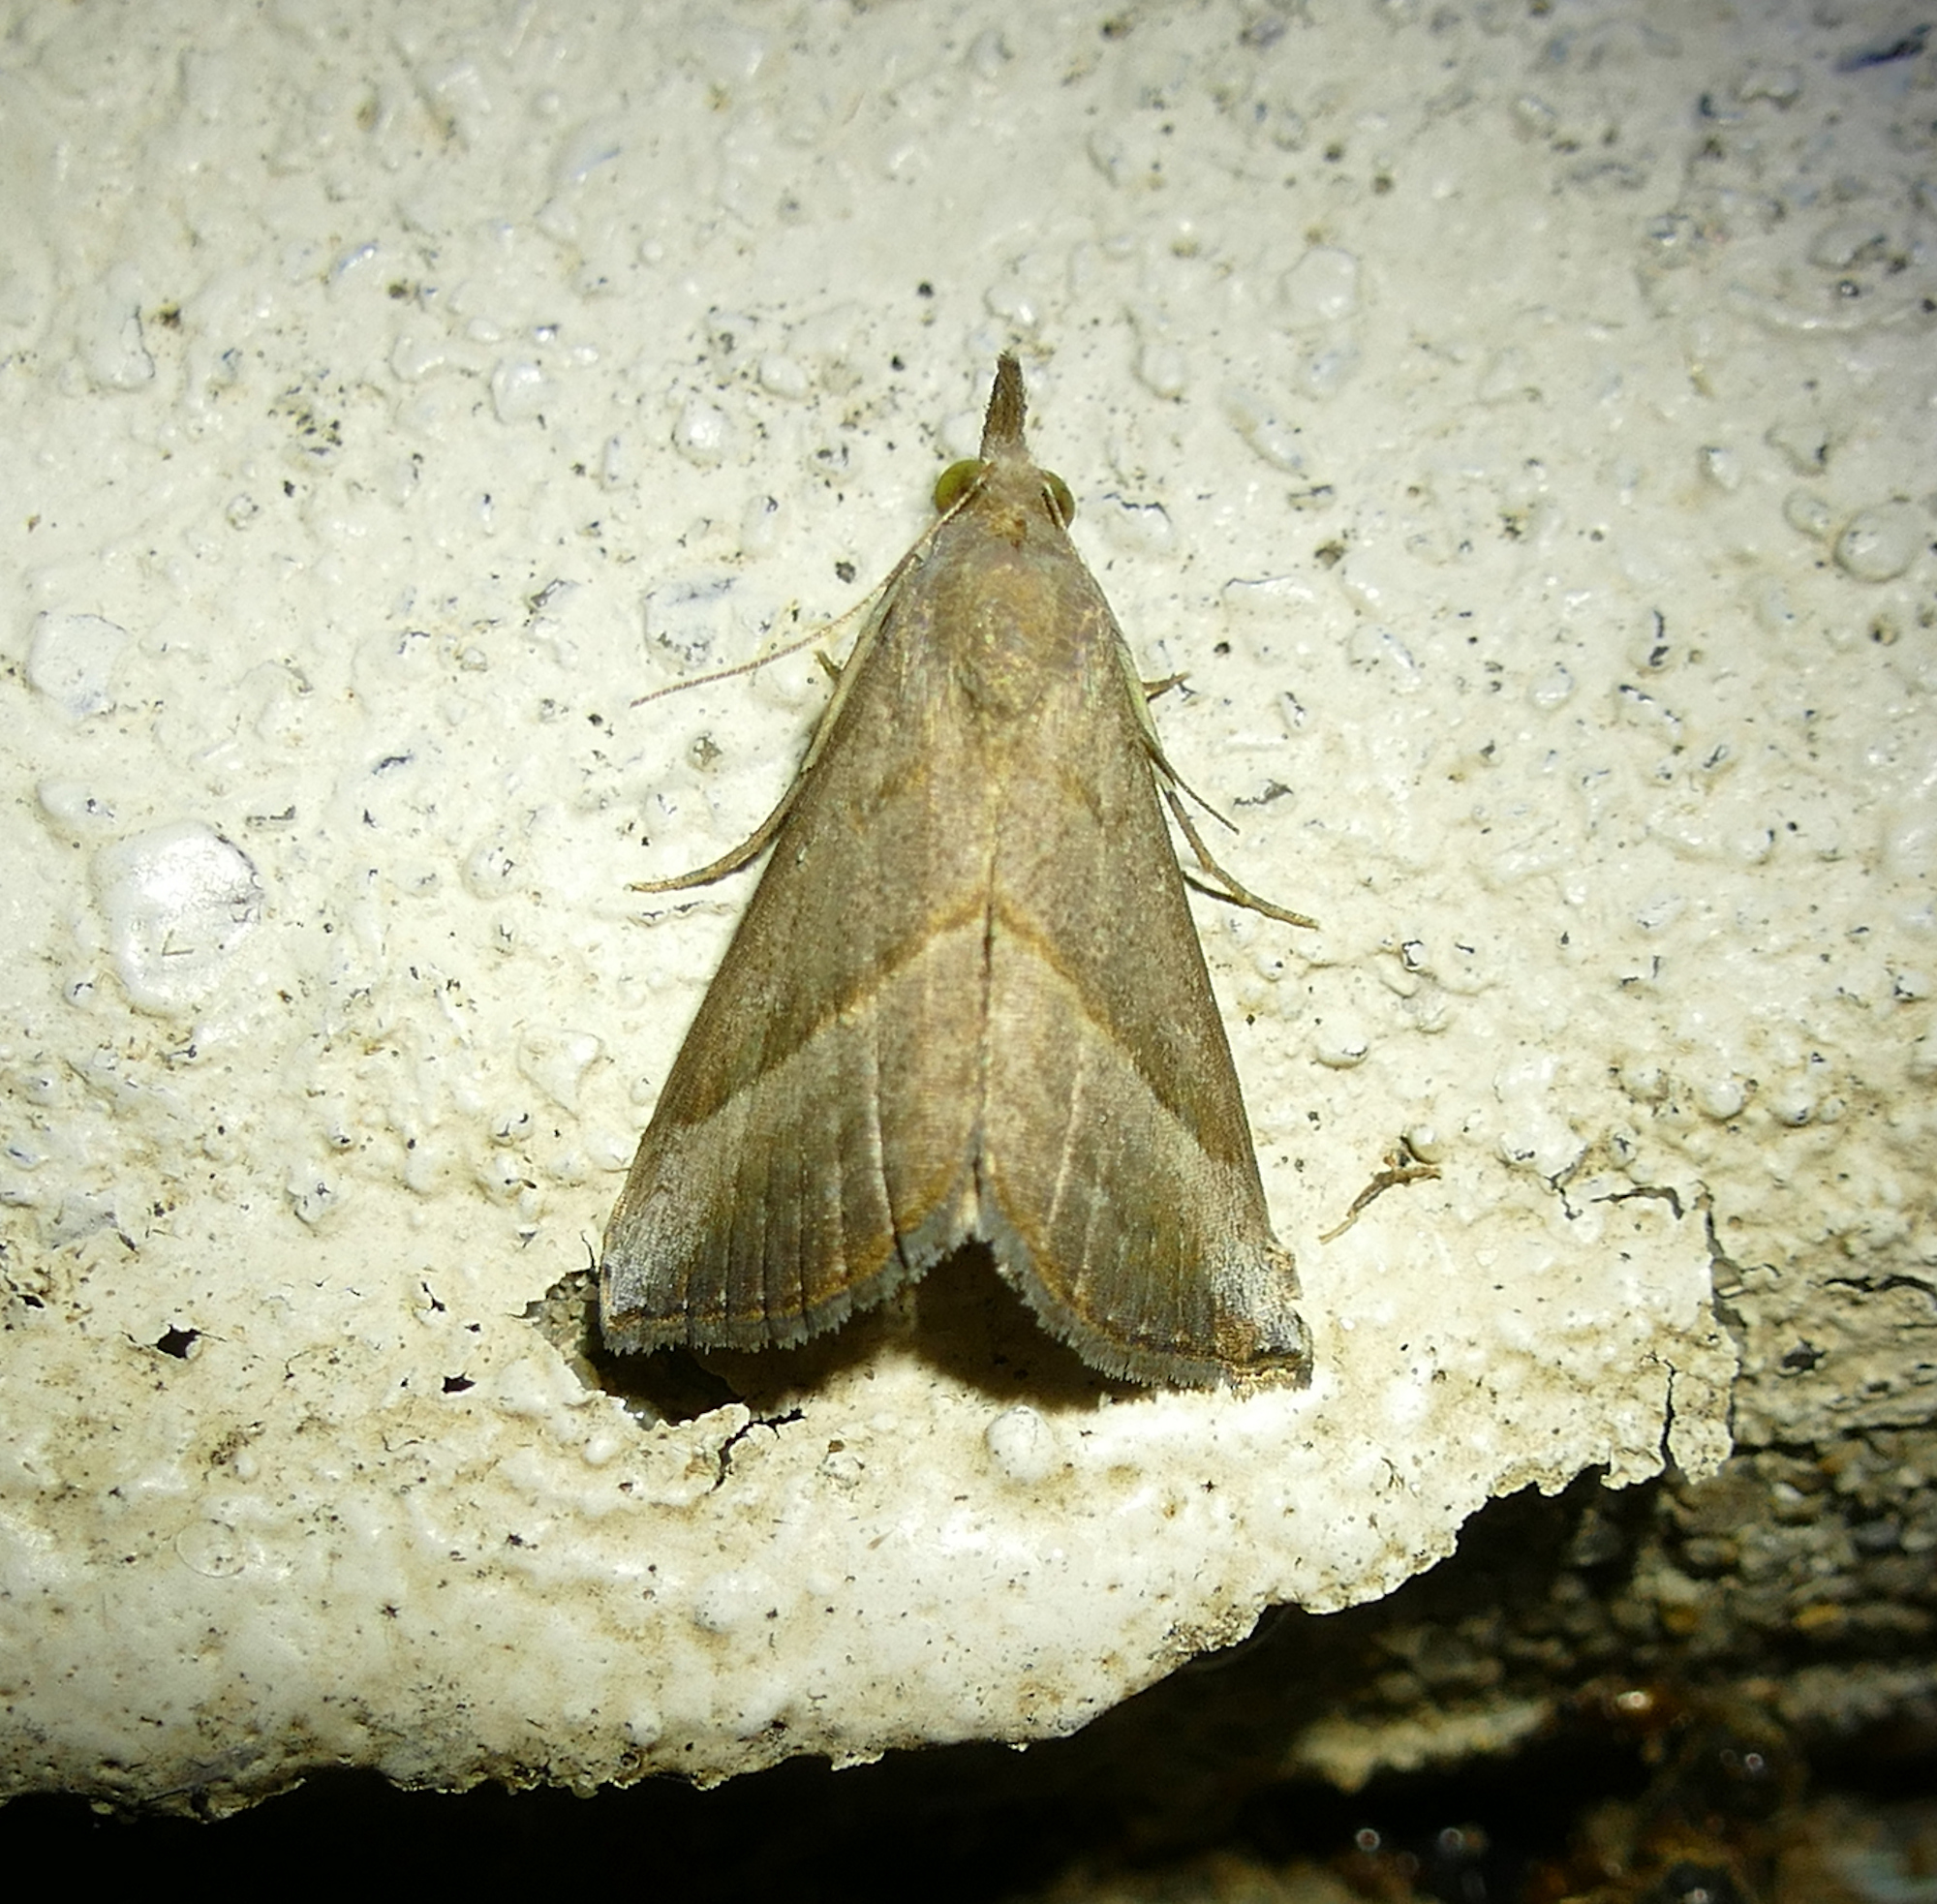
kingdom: Animalia
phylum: Arthropoda
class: Insecta
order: Lepidoptera
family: Erebidae
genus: Hypena
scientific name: Hypena degesalis
